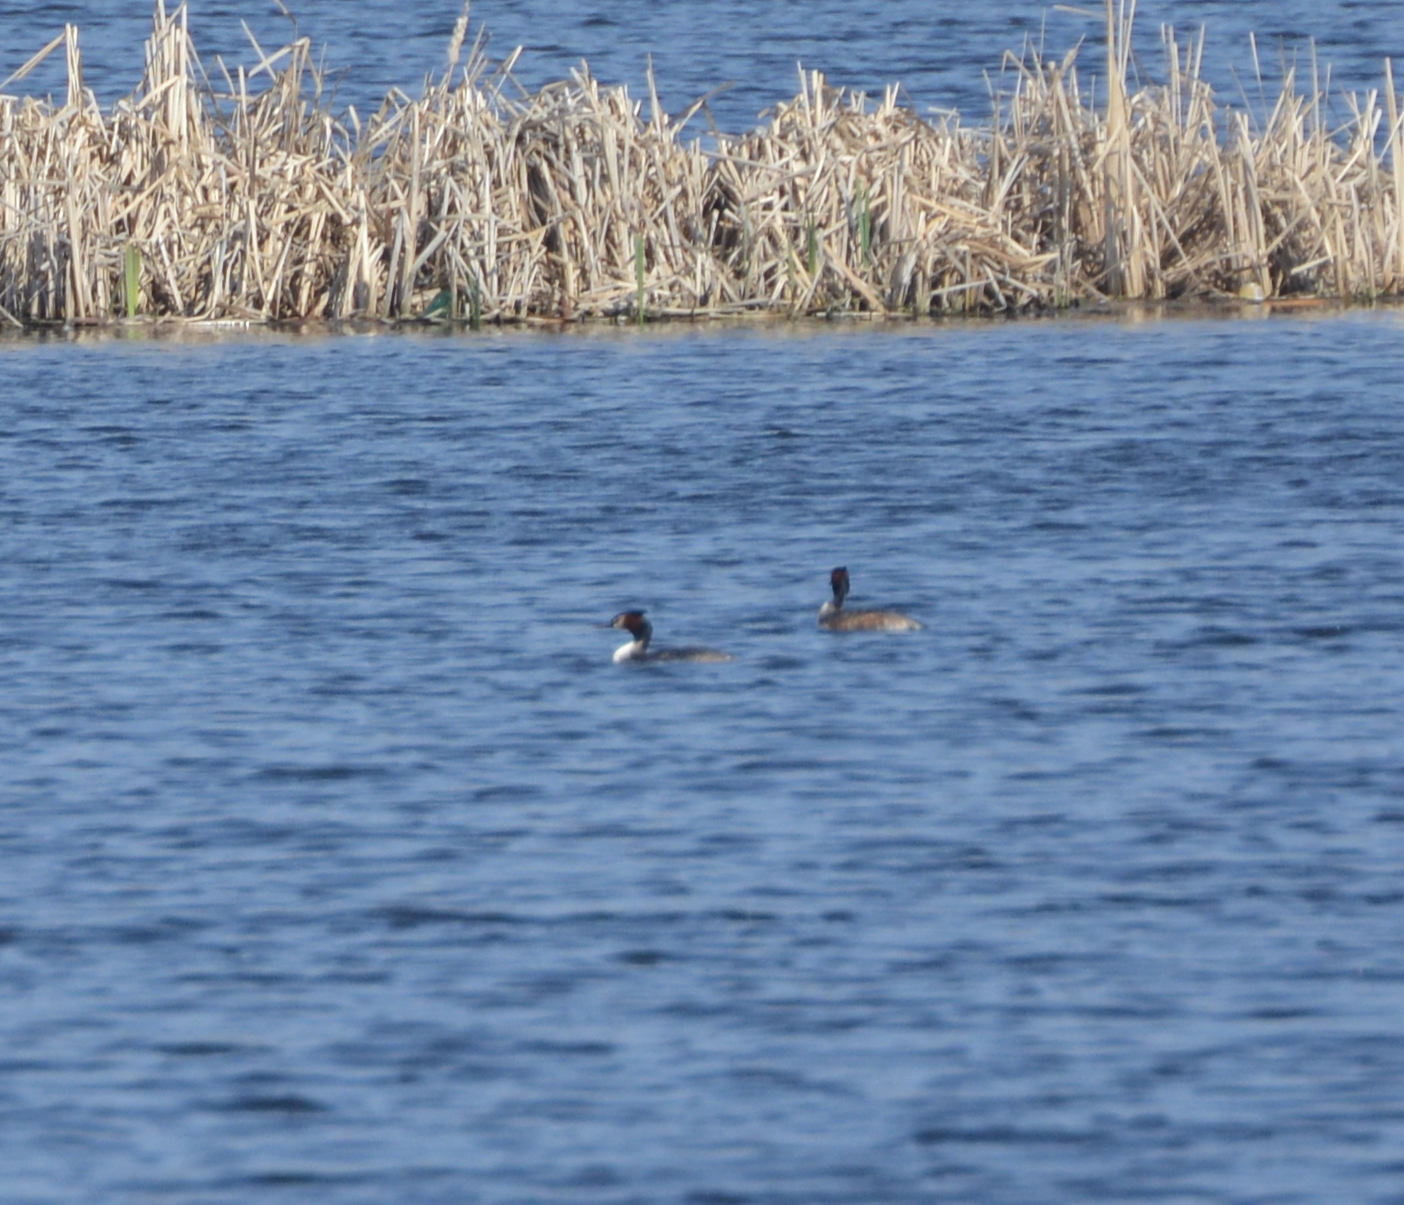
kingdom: Animalia
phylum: Chordata
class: Aves
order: Podicipediformes
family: Podicipedidae
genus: Podiceps
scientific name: Podiceps cristatus
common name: Great crested grebe
